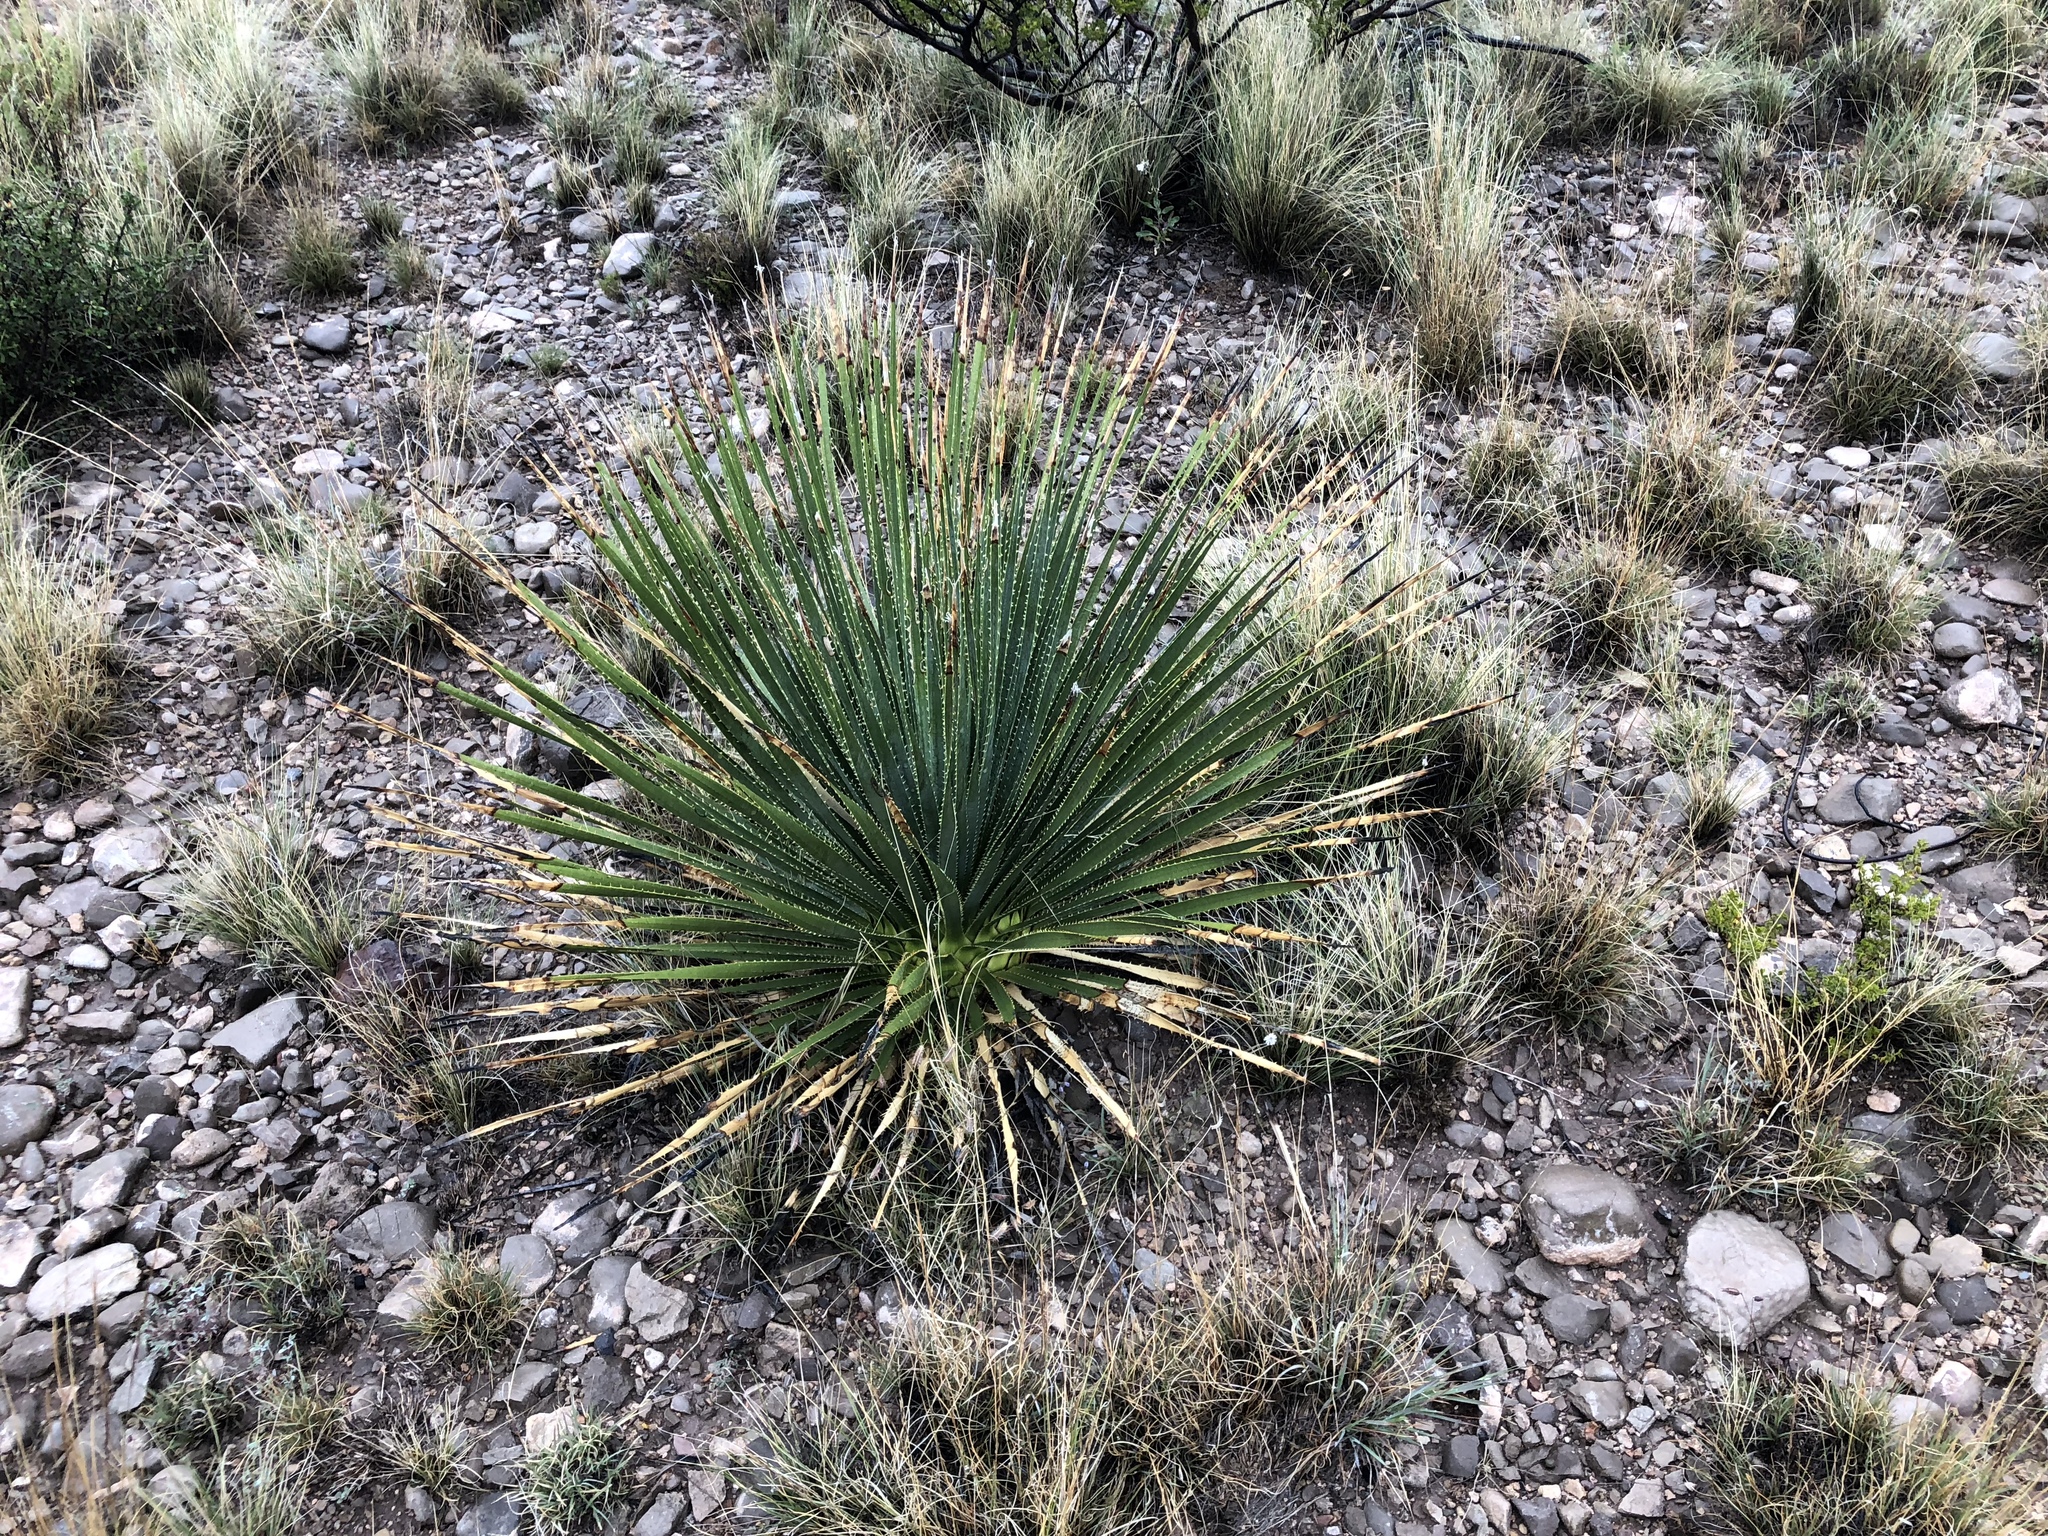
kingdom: Plantae
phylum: Tracheophyta
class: Liliopsida
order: Asparagales
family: Asparagaceae
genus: Dasylirion
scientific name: Dasylirion wheeleri
